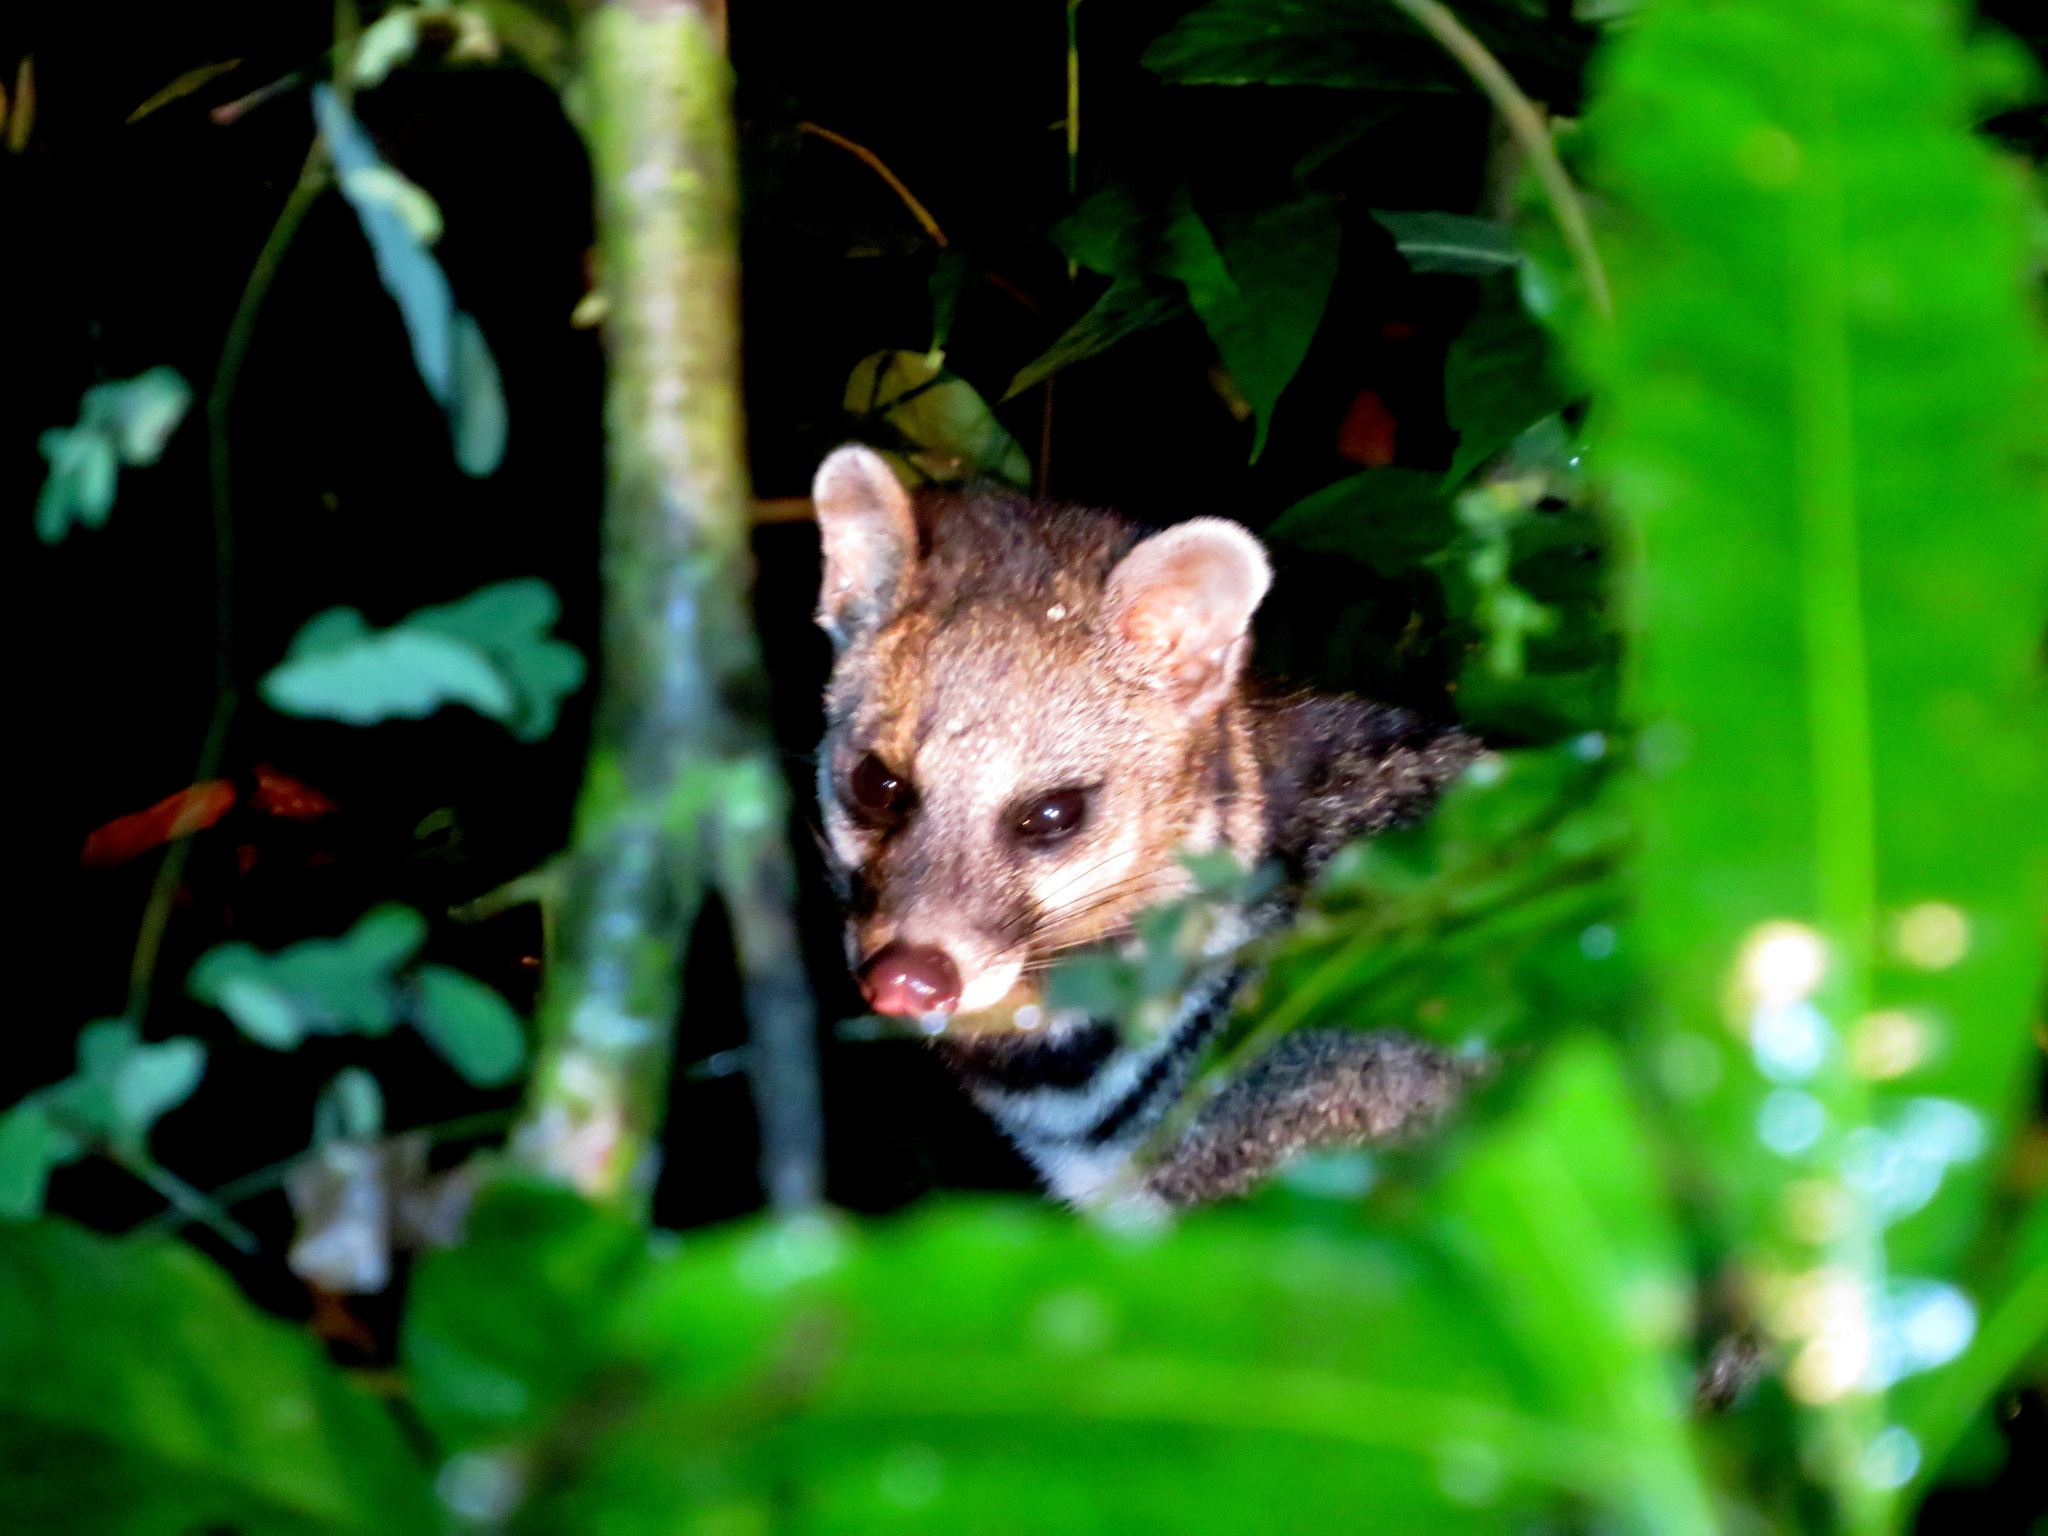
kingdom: Animalia
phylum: Chordata
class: Mammalia
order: Carnivora
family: Viverridae
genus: Viverra
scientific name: Viverra tangalunga
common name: Malayan civet
